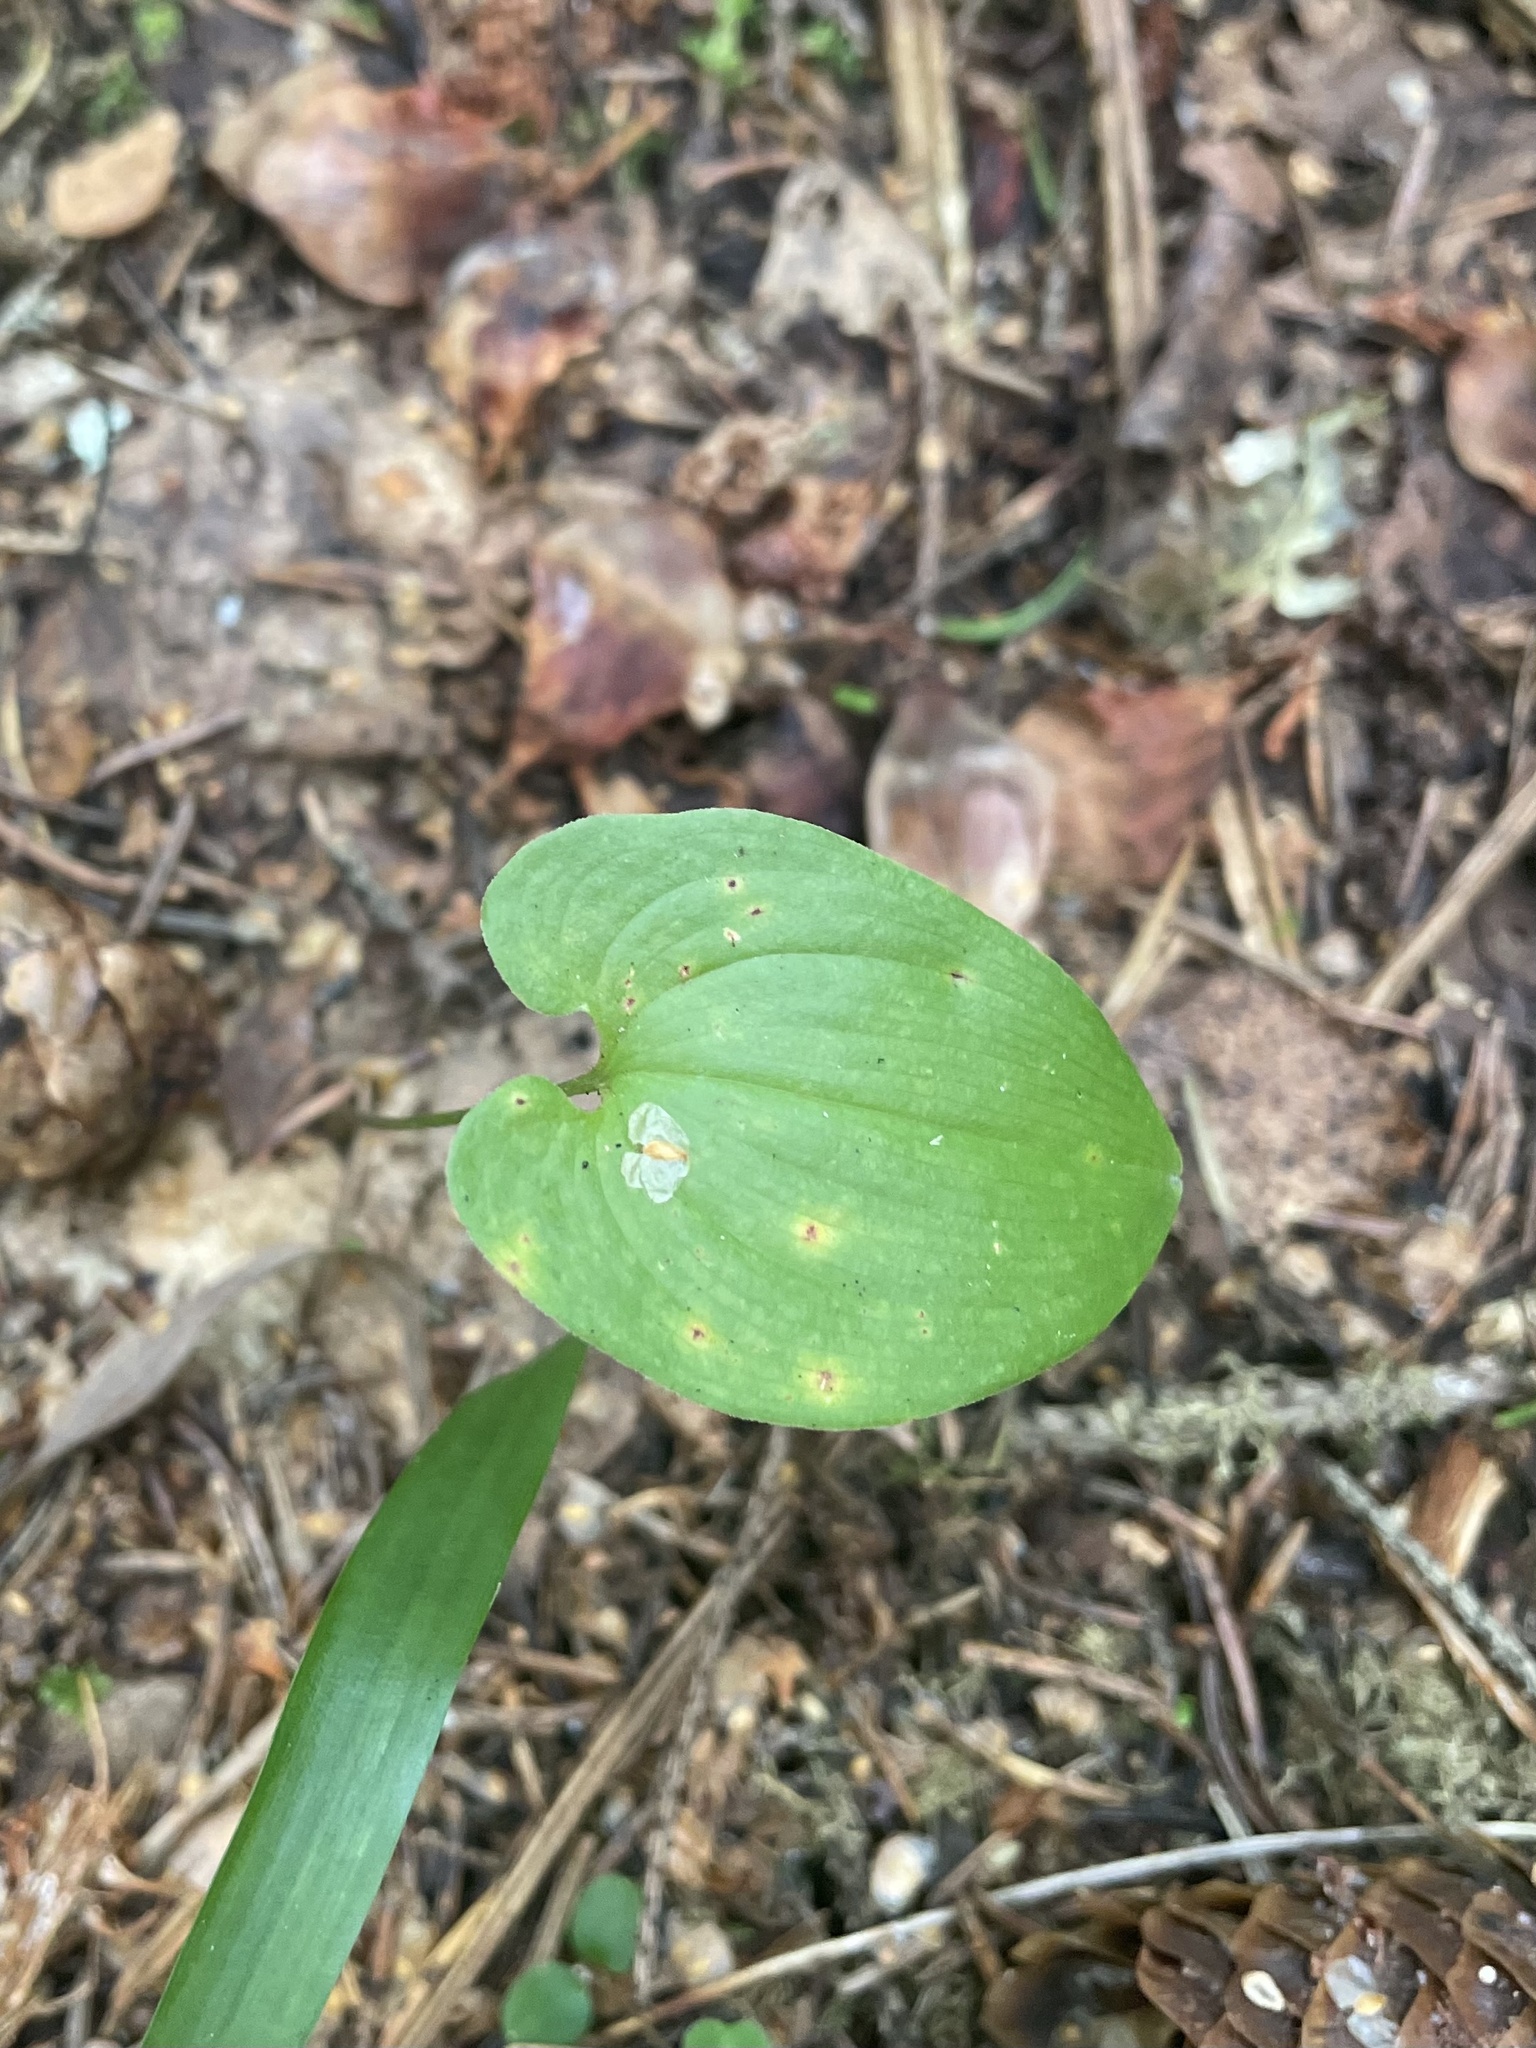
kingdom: Plantae
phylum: Tracheophyta
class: Liliopsida
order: Asparagales
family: Asparagaceae
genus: Maianthemum
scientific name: Maianthemum bifolium
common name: May lily
